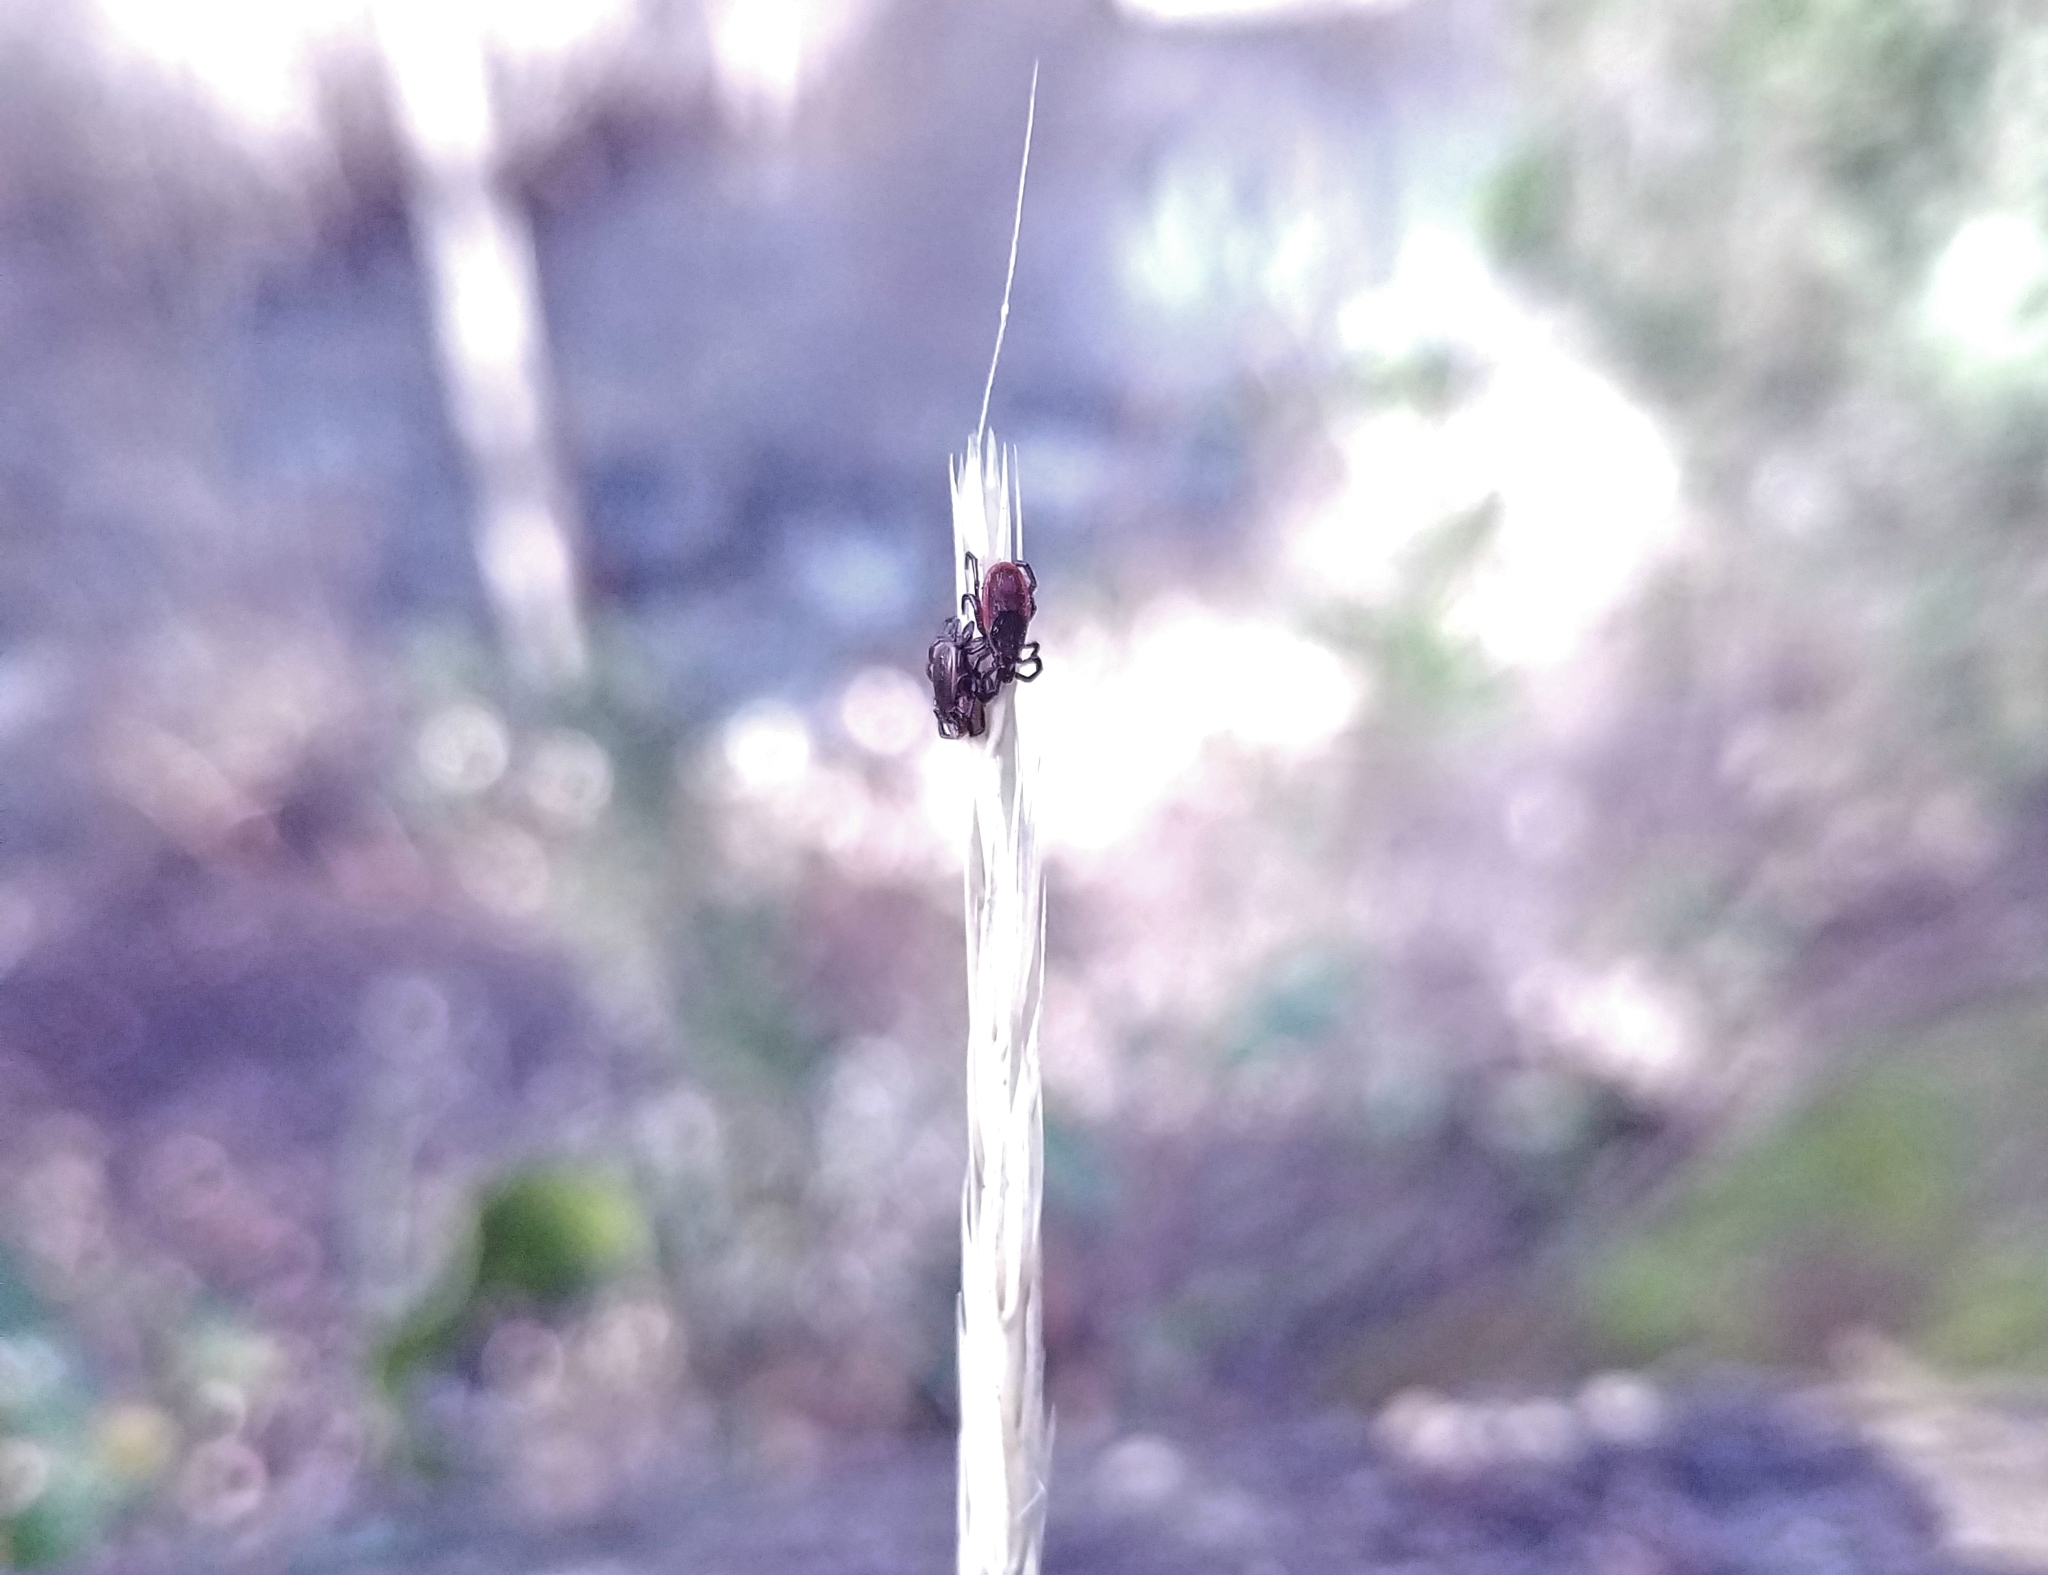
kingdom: Animalia
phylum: Arthropoda
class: Arachnida
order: Ixodida
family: Ixodidae
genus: Ixodes
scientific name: Ixodes pacificus
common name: California black-legged tick
